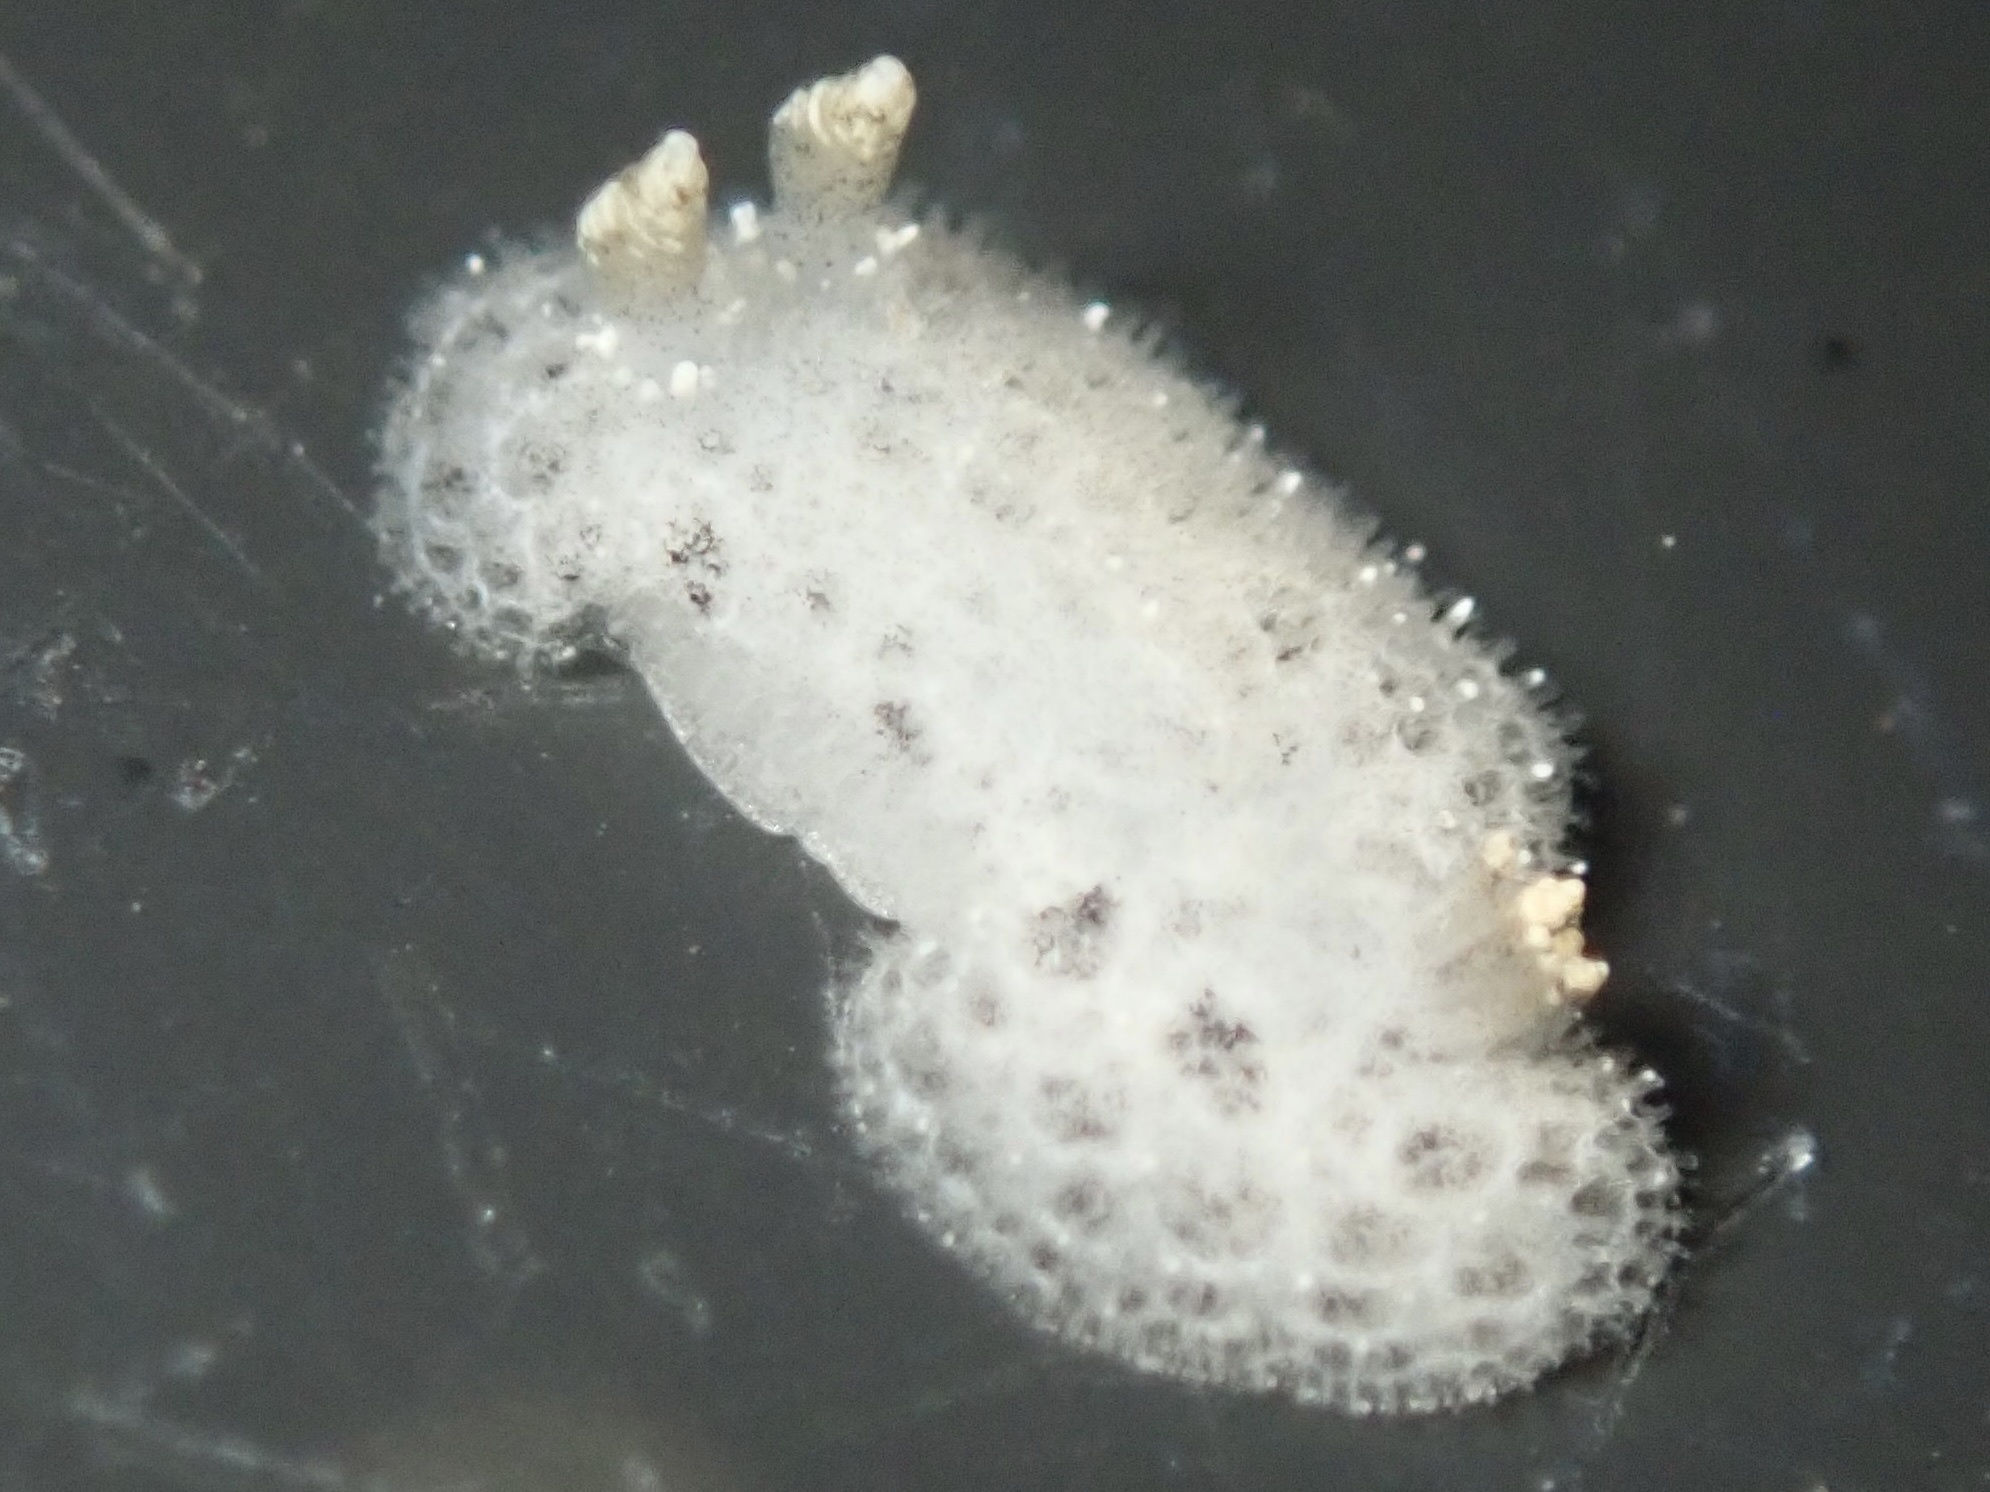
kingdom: Animalia
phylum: Mollusca
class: Gastropoda
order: Nudibranchia
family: Discodorididae
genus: Tayuva
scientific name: Tayuva lilacina
